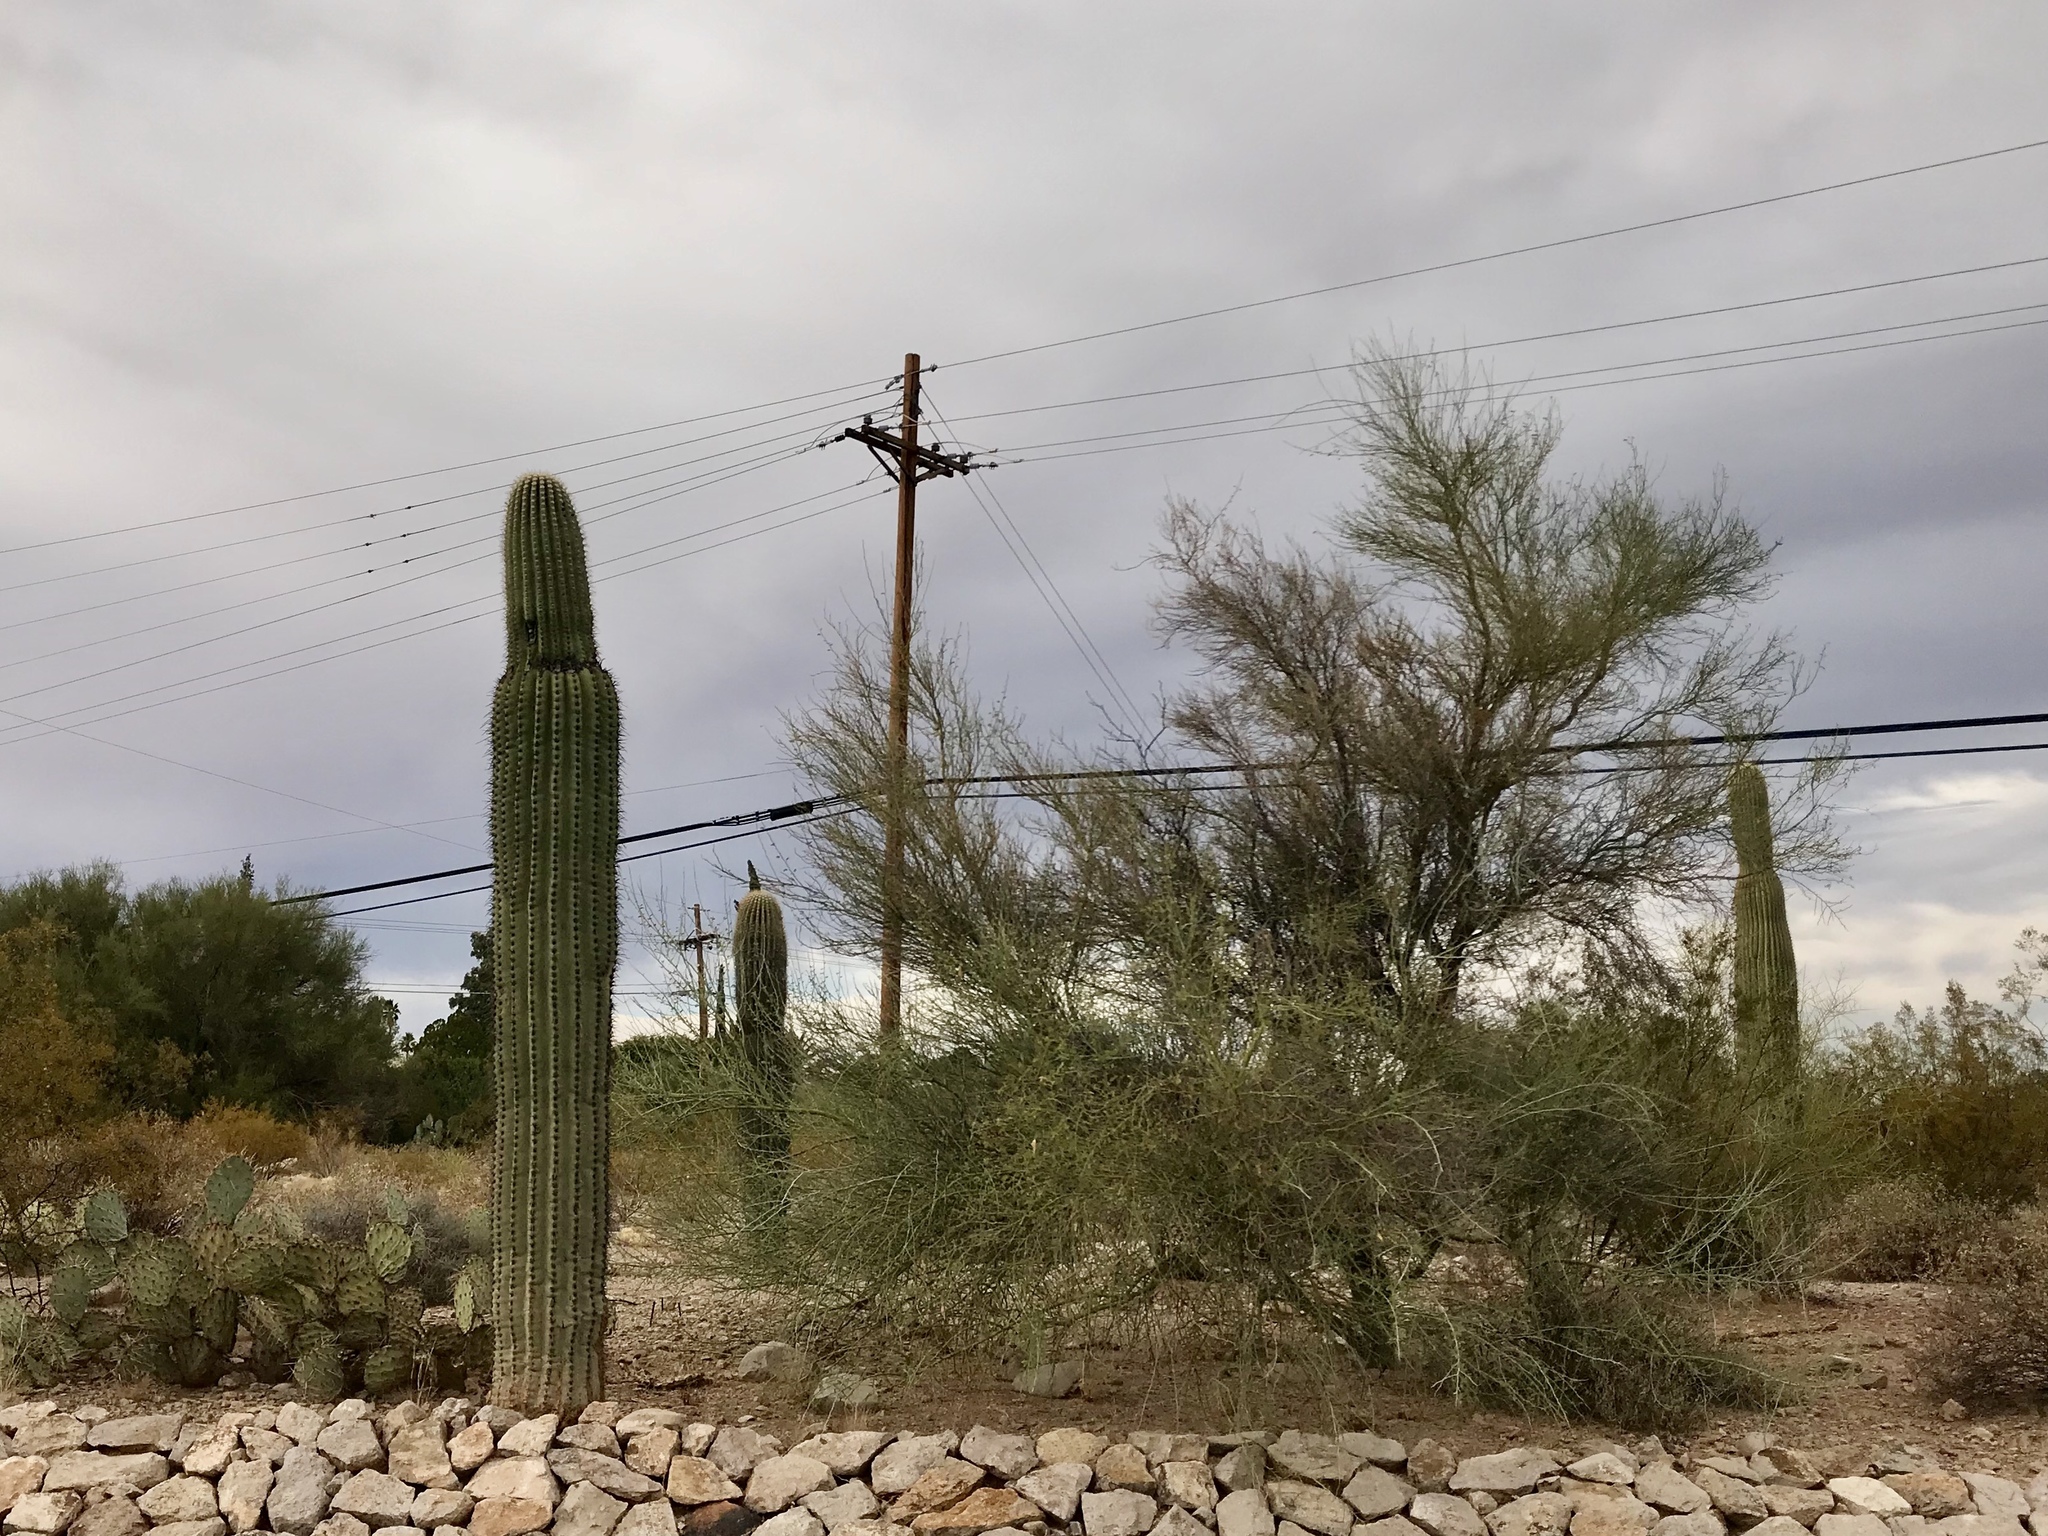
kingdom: Plantae
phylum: Tracheophyta
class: Magnoliopsida
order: Fabales
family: Fabaceae
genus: Parkinsonia
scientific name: Parkinsonia microphylla
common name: Yellow paloverde
